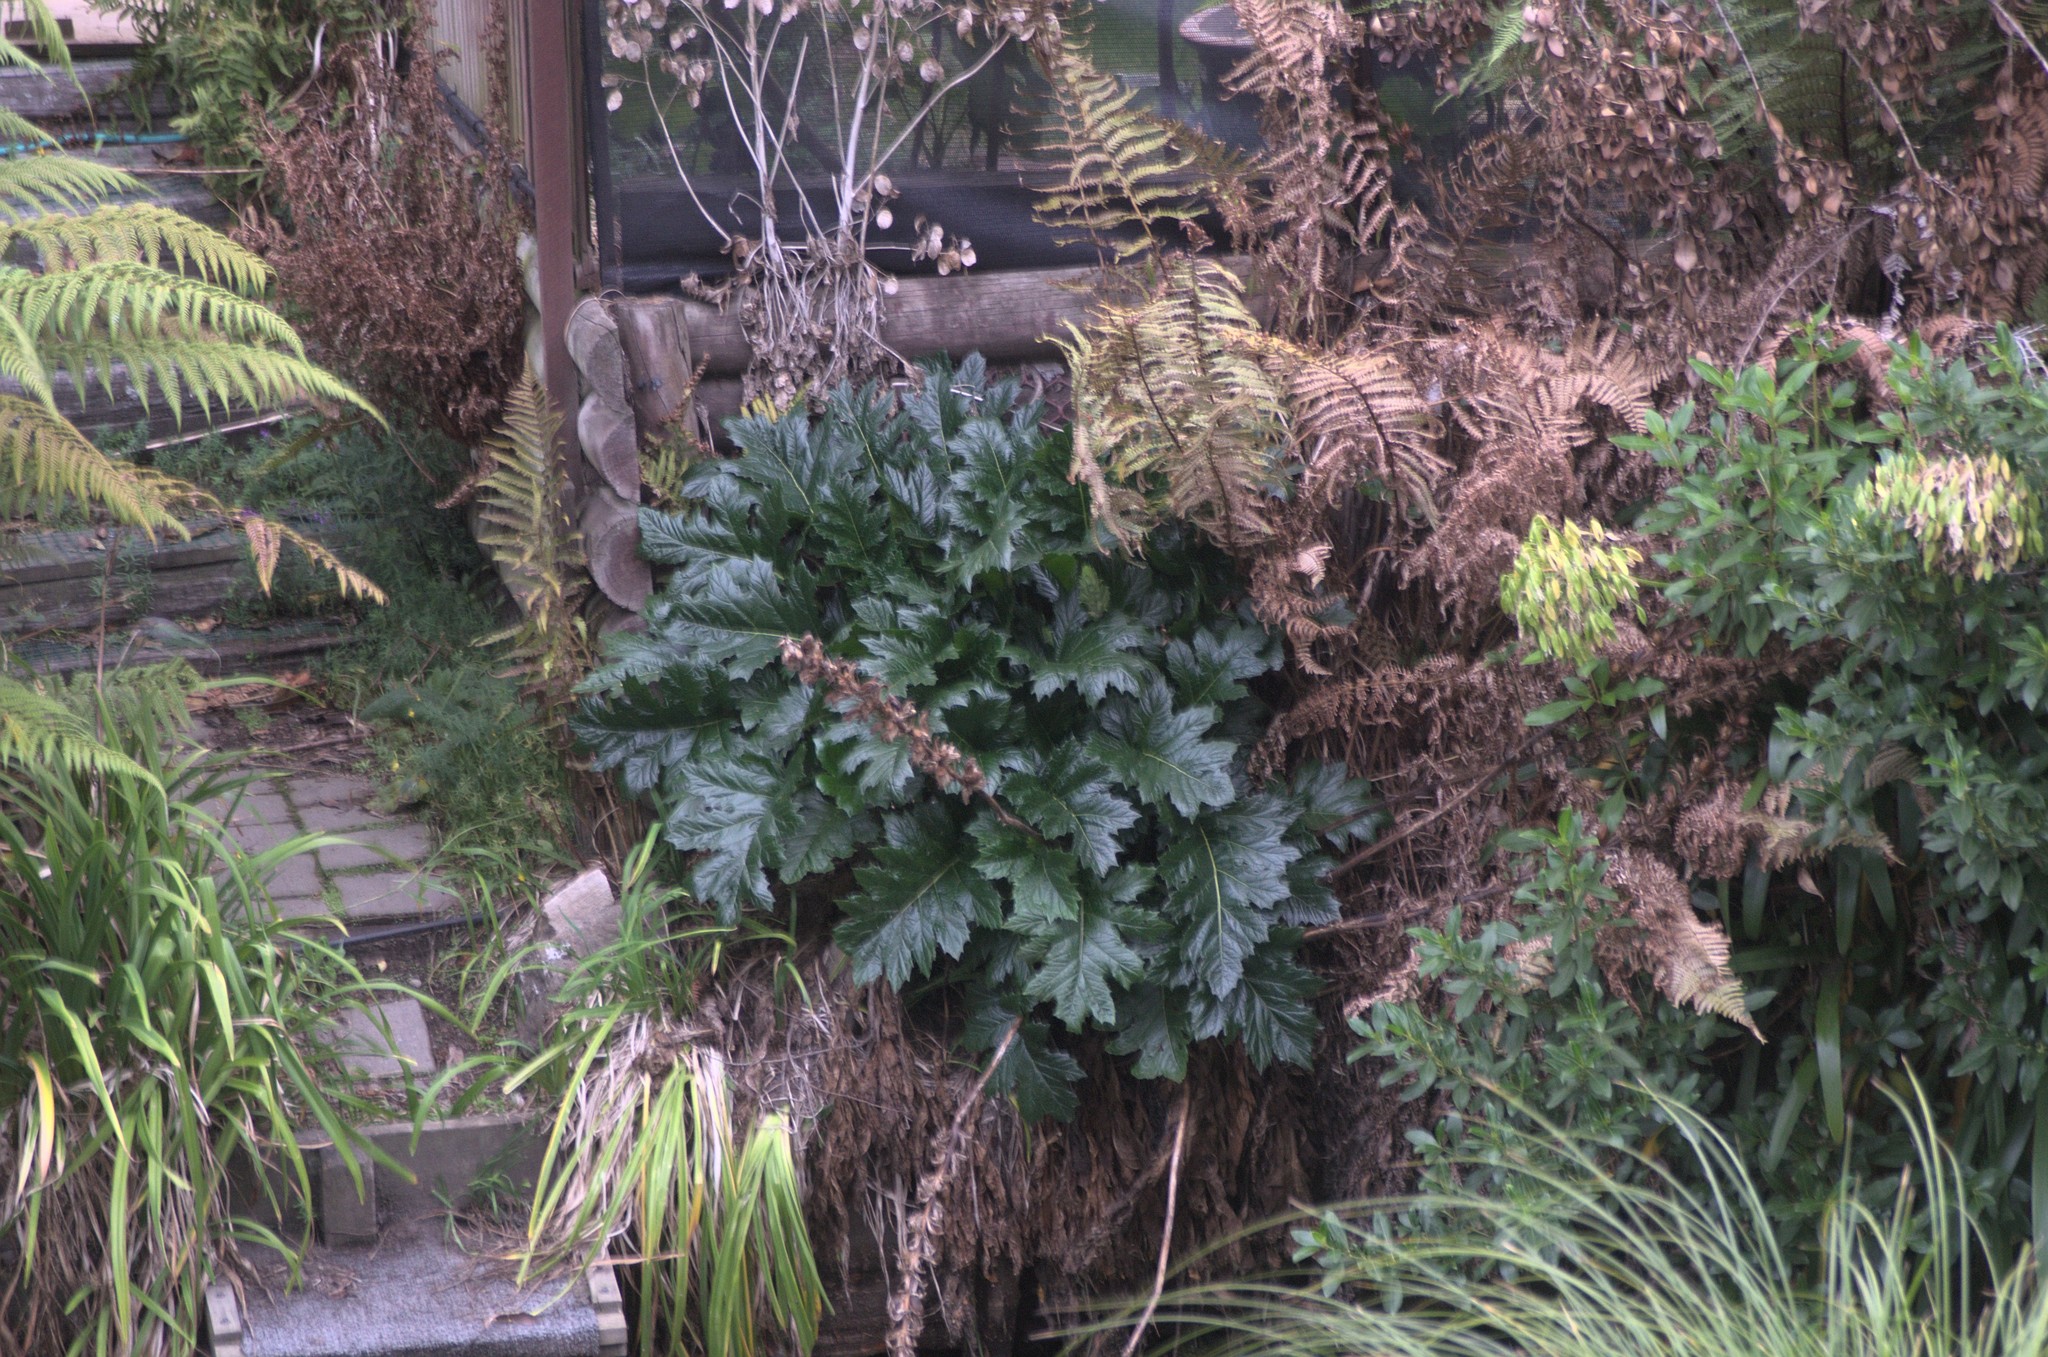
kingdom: Plantae
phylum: Tracheophyta
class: Magnoliopsida
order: Lamiales
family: Acanthaceae
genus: Acanthus
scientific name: Acanthus mollis
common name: Bear's-breech
